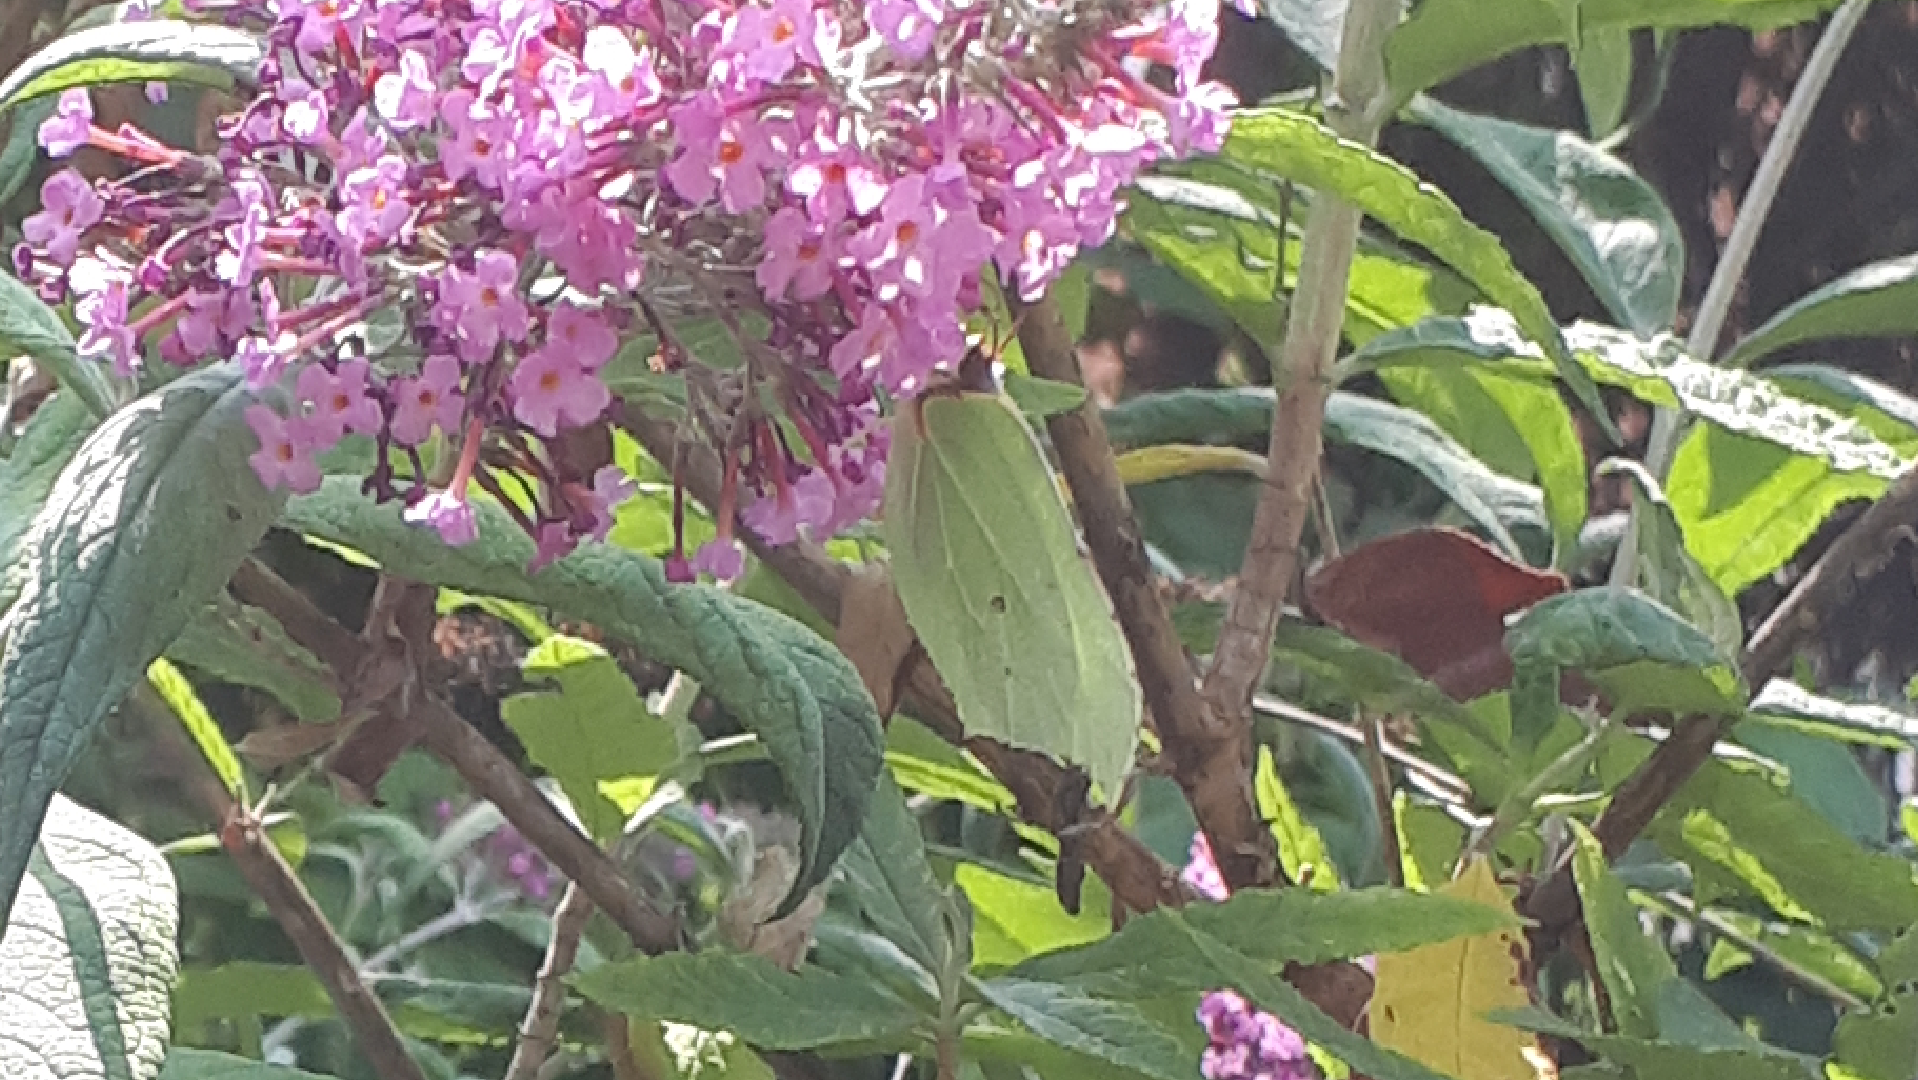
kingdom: Animalia
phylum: Arthropoda
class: Insecta
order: Lepidoptera
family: Pieridae
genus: Gonepteryx
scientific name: Gonepteryx rhamni
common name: Brimstone
